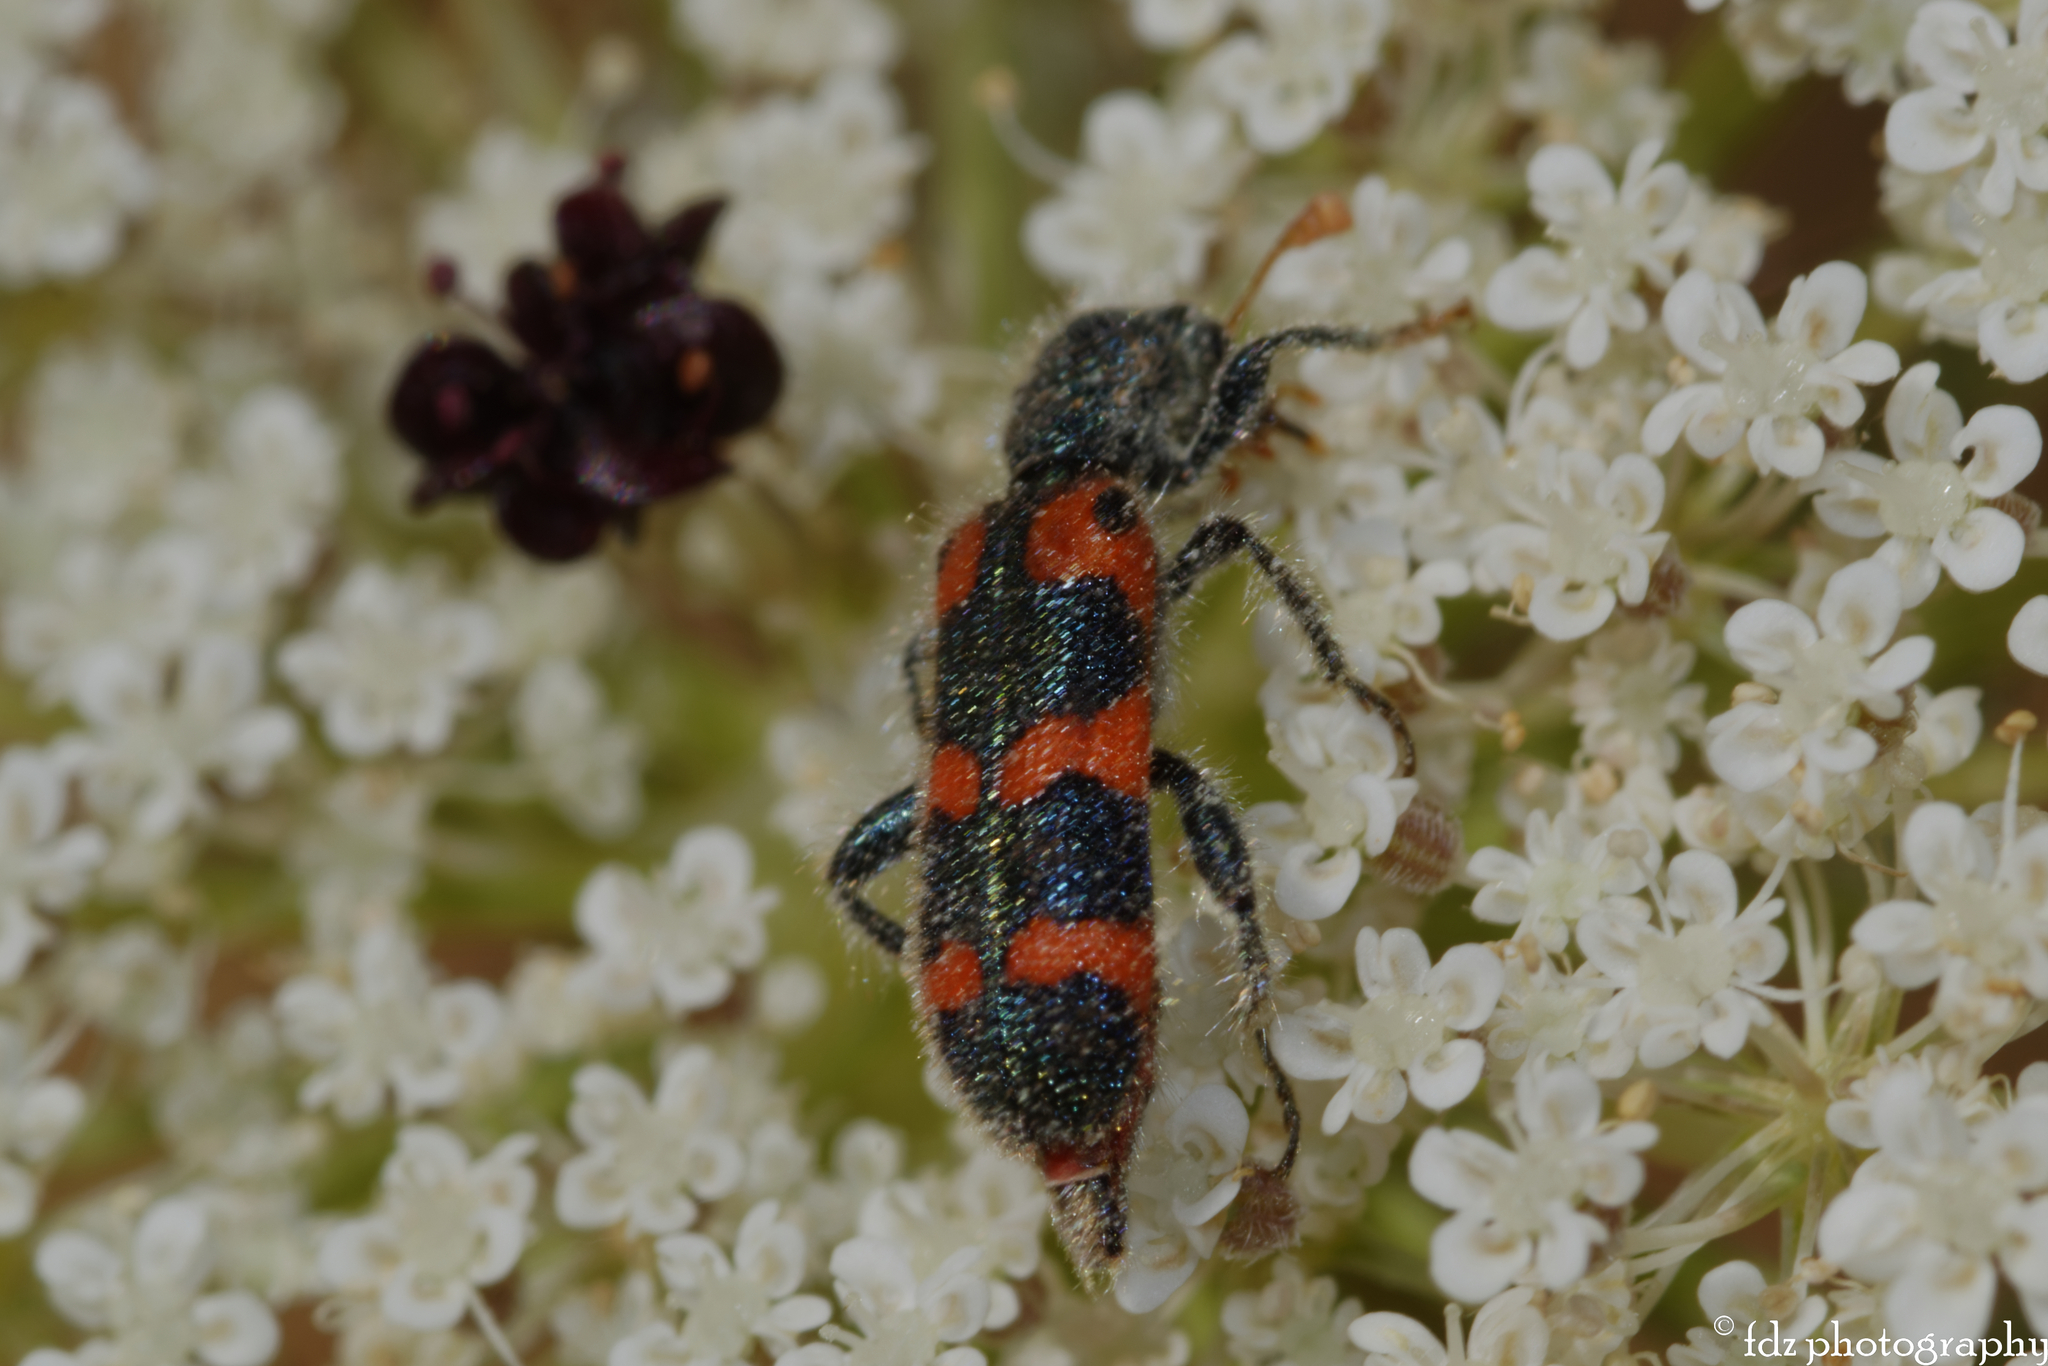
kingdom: Animalia
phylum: Arthropoda
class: Insecta
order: Coleoptera
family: Cleridae
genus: Trichodes
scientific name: Trichodes leucopsideus
